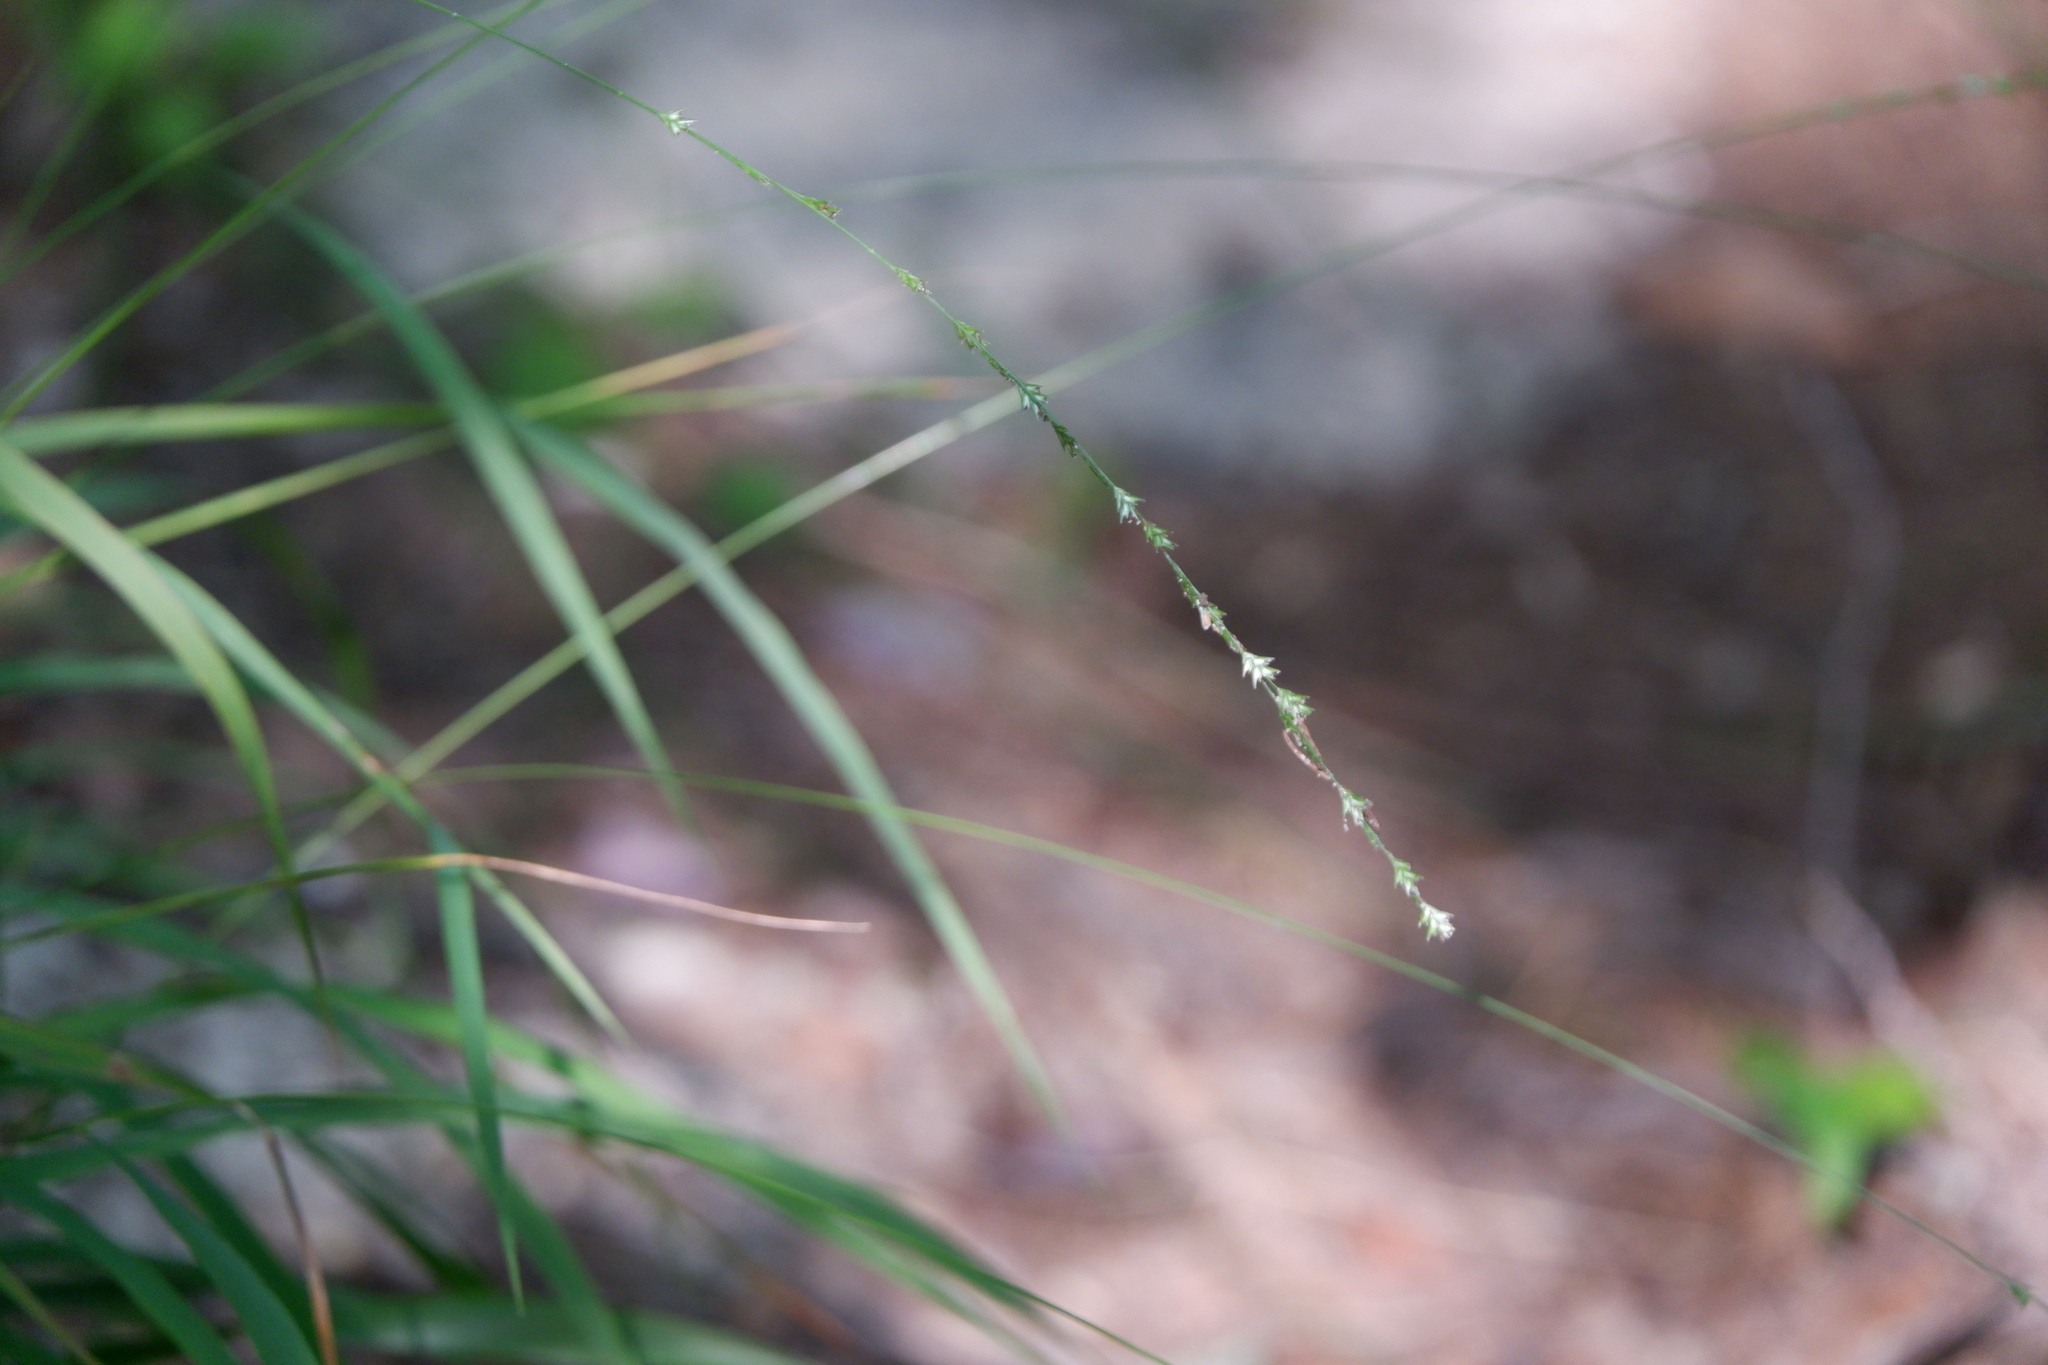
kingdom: Plantae
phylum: Tracheophyta
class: Liliopsida
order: Poales
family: Poaceae
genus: Chasmanthium
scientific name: Chasmanthium laxum
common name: Slender chasmanthium
